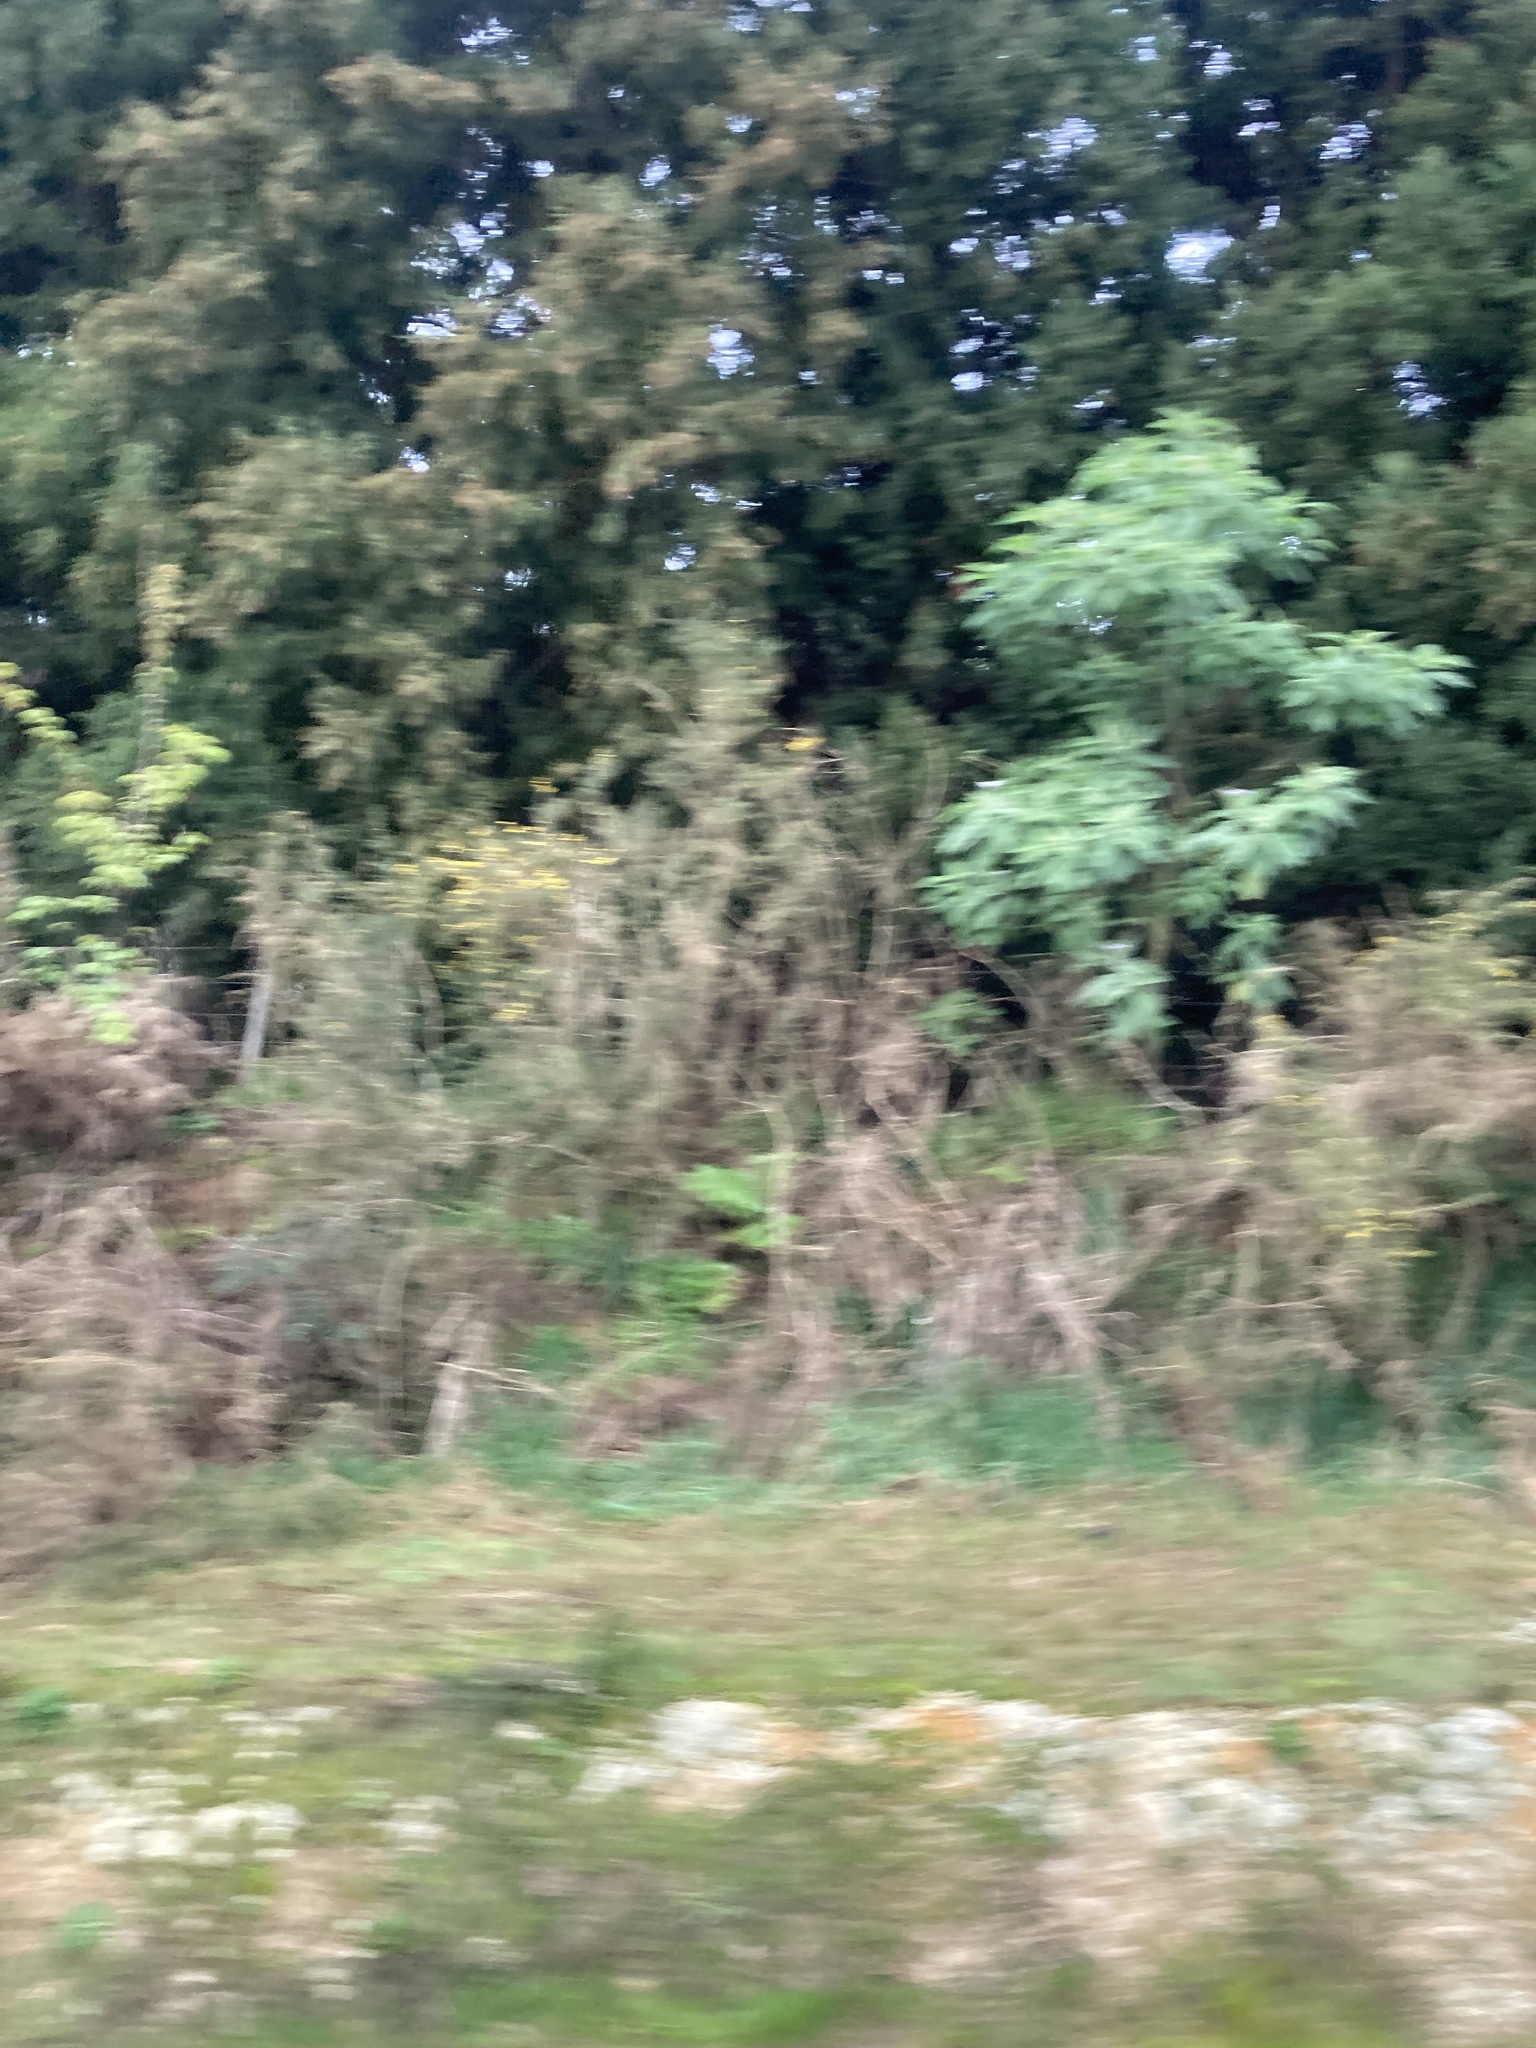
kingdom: Plantae
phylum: Tracheophyta
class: Magnoliopsida
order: Solanales
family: Solanaceae
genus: Solanum
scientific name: Solanum mauritianum
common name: Earleaf nightshade
